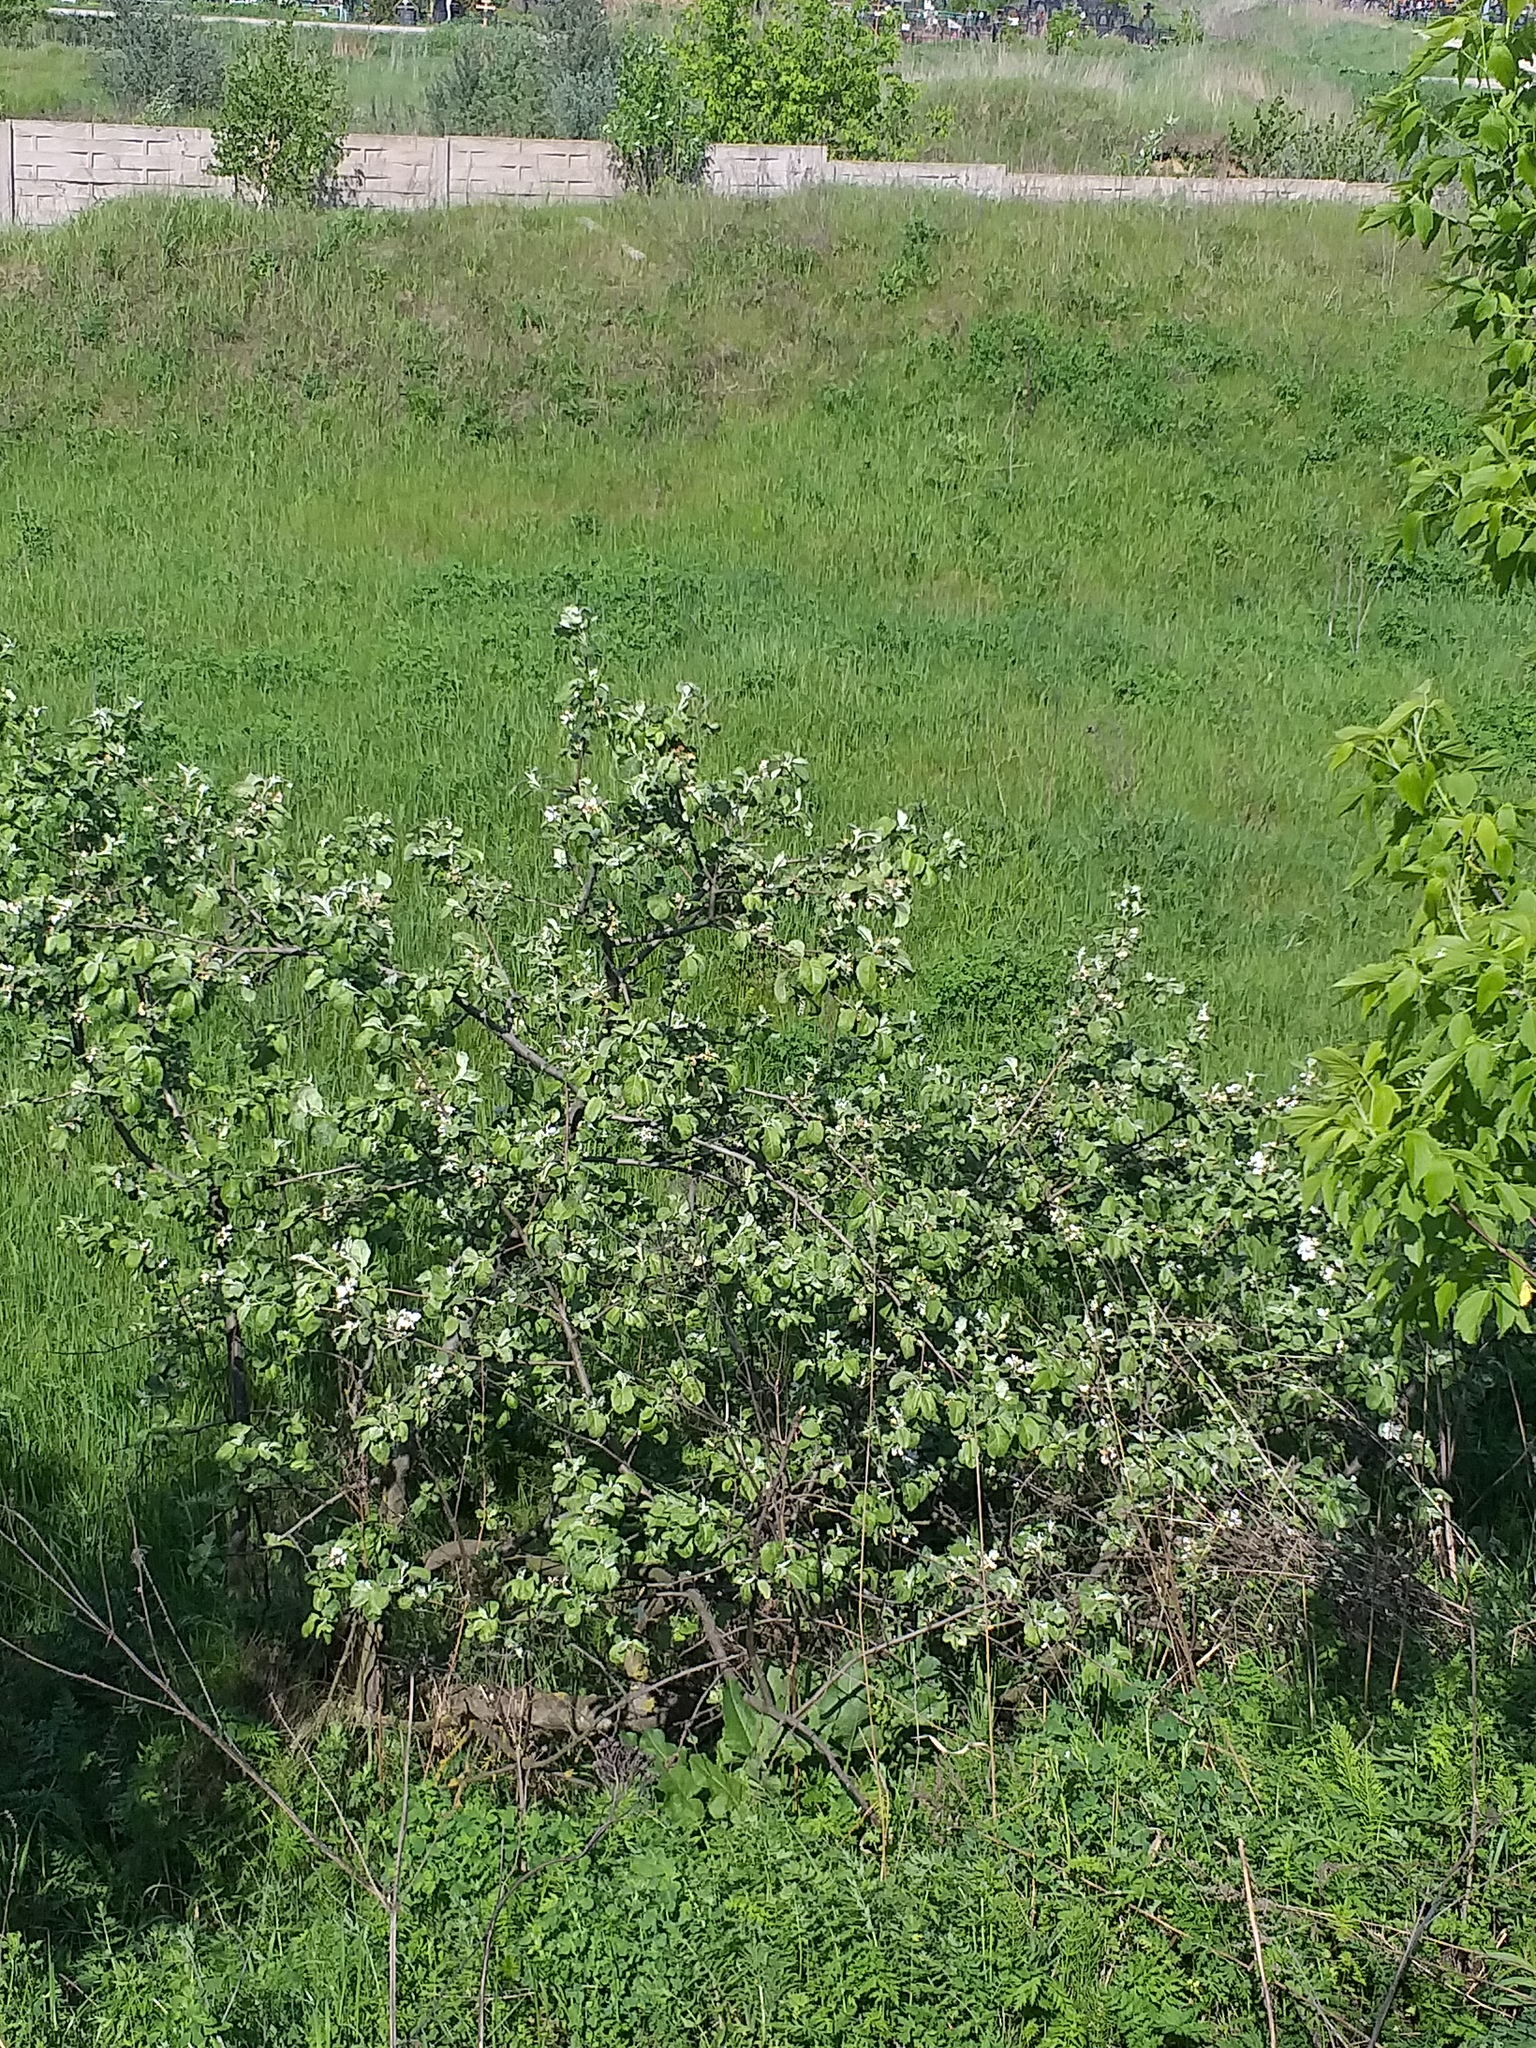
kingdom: Plantae
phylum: Tracheophyta
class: Magnoliopsida
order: Rosales
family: Rosaceae
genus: Malus
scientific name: Malus domestica
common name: Apple
